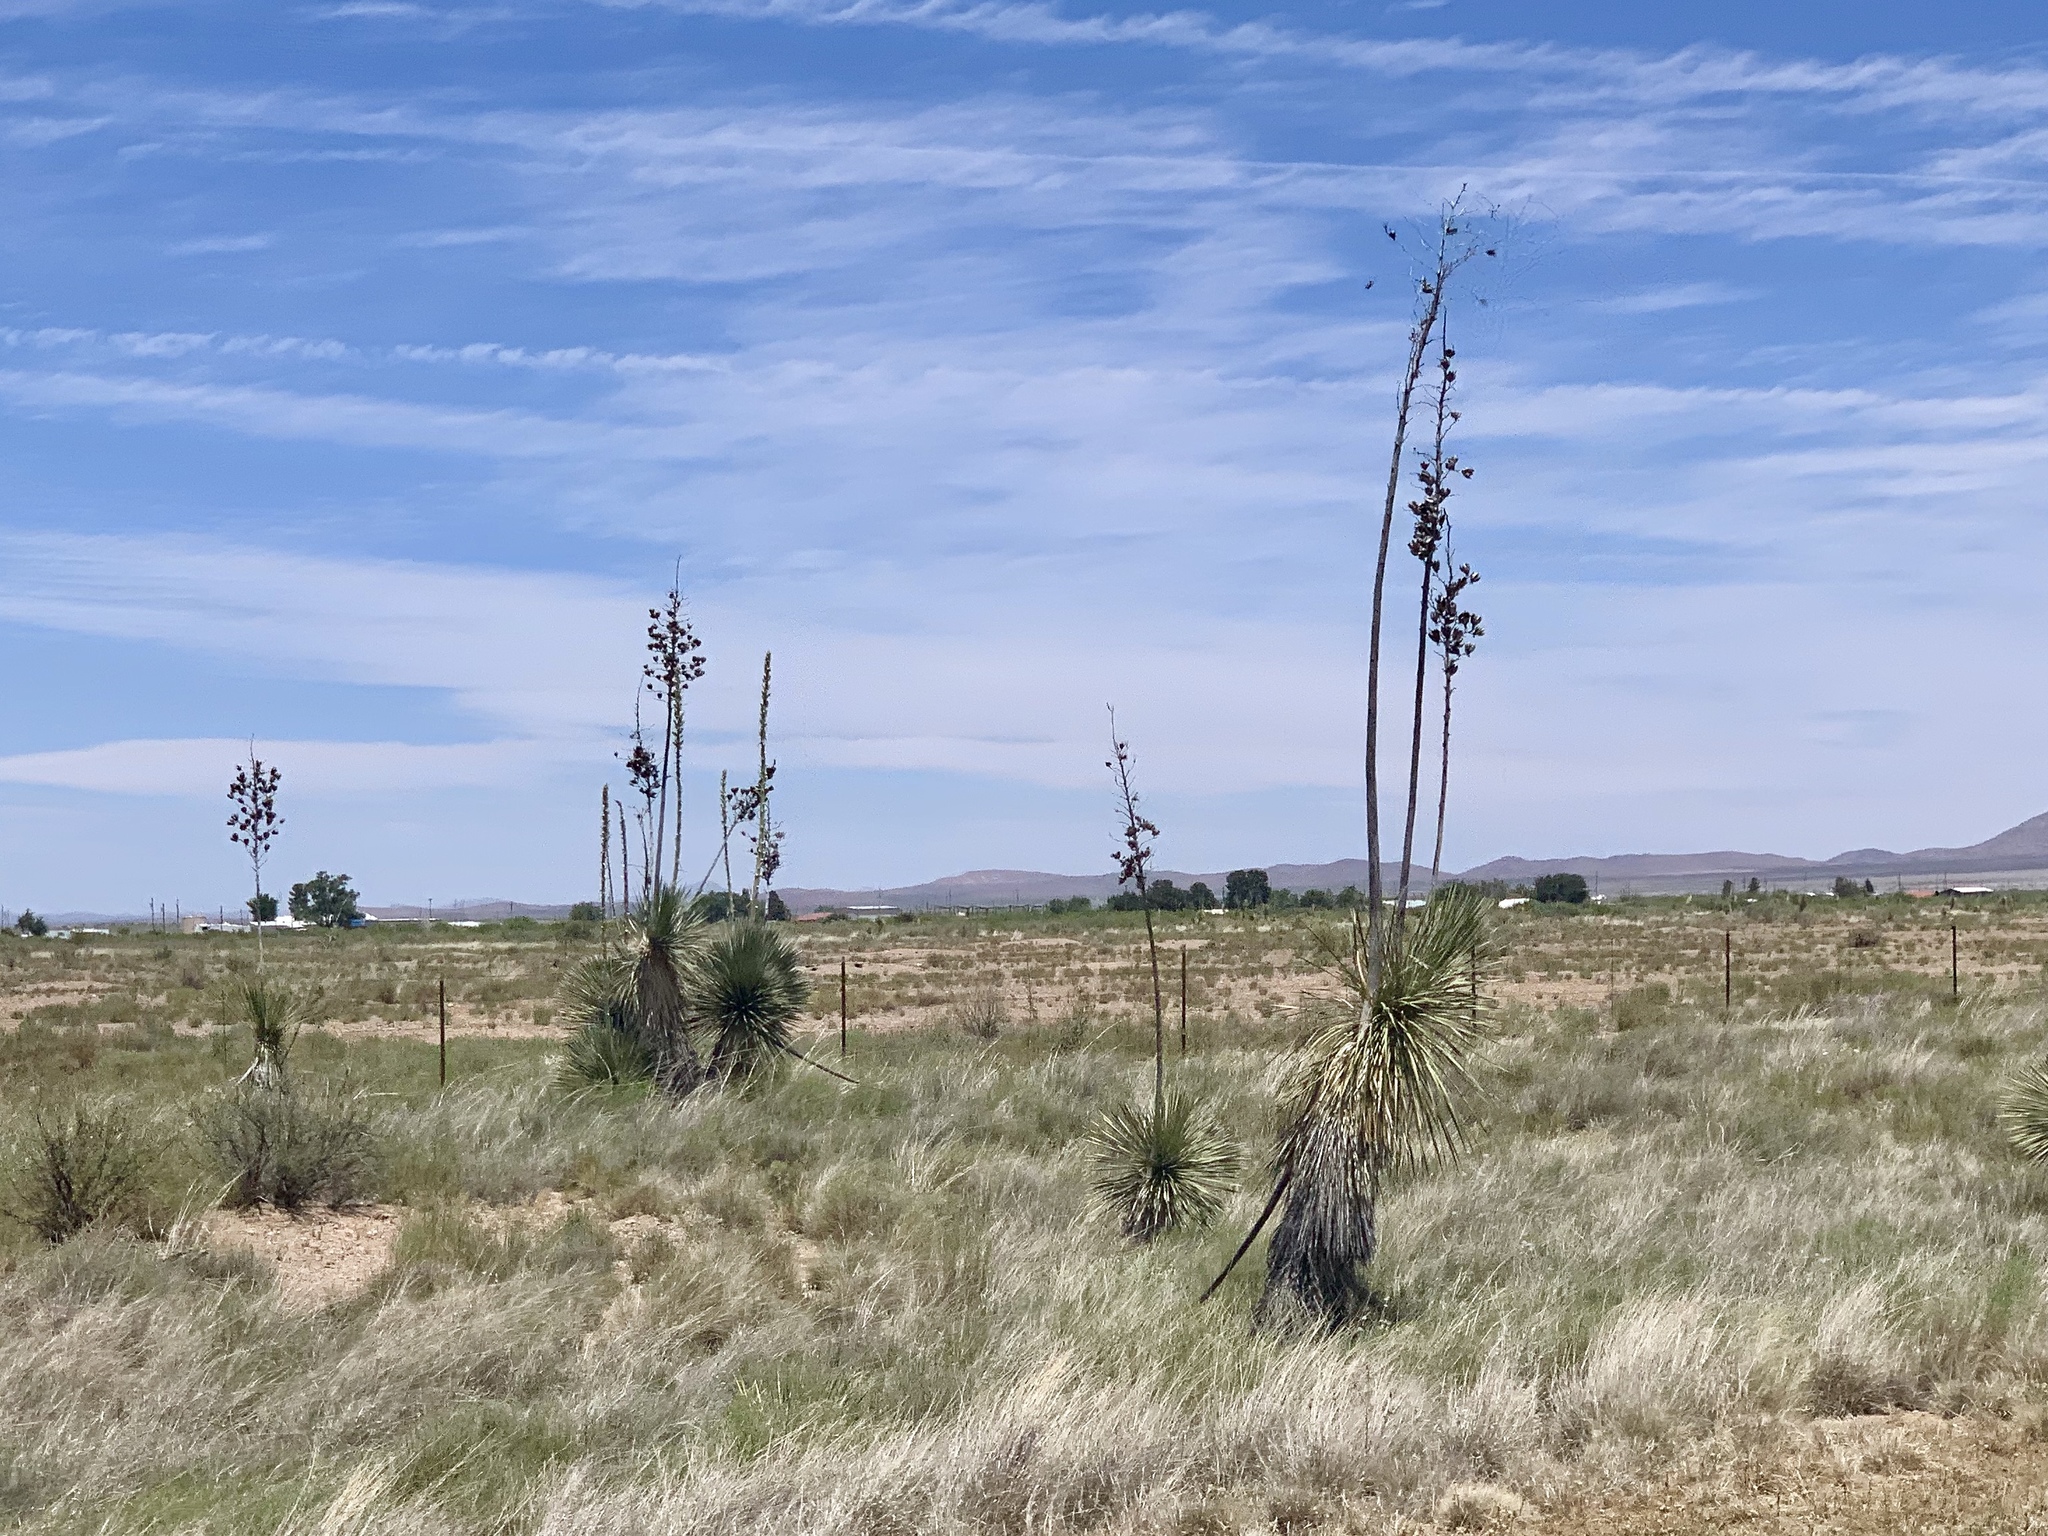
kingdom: Plantae
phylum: Tracheophyta
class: Liliopsida
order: Asparagales
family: Asparagaceae
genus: Yucca
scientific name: Yucca elata
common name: Palmella
